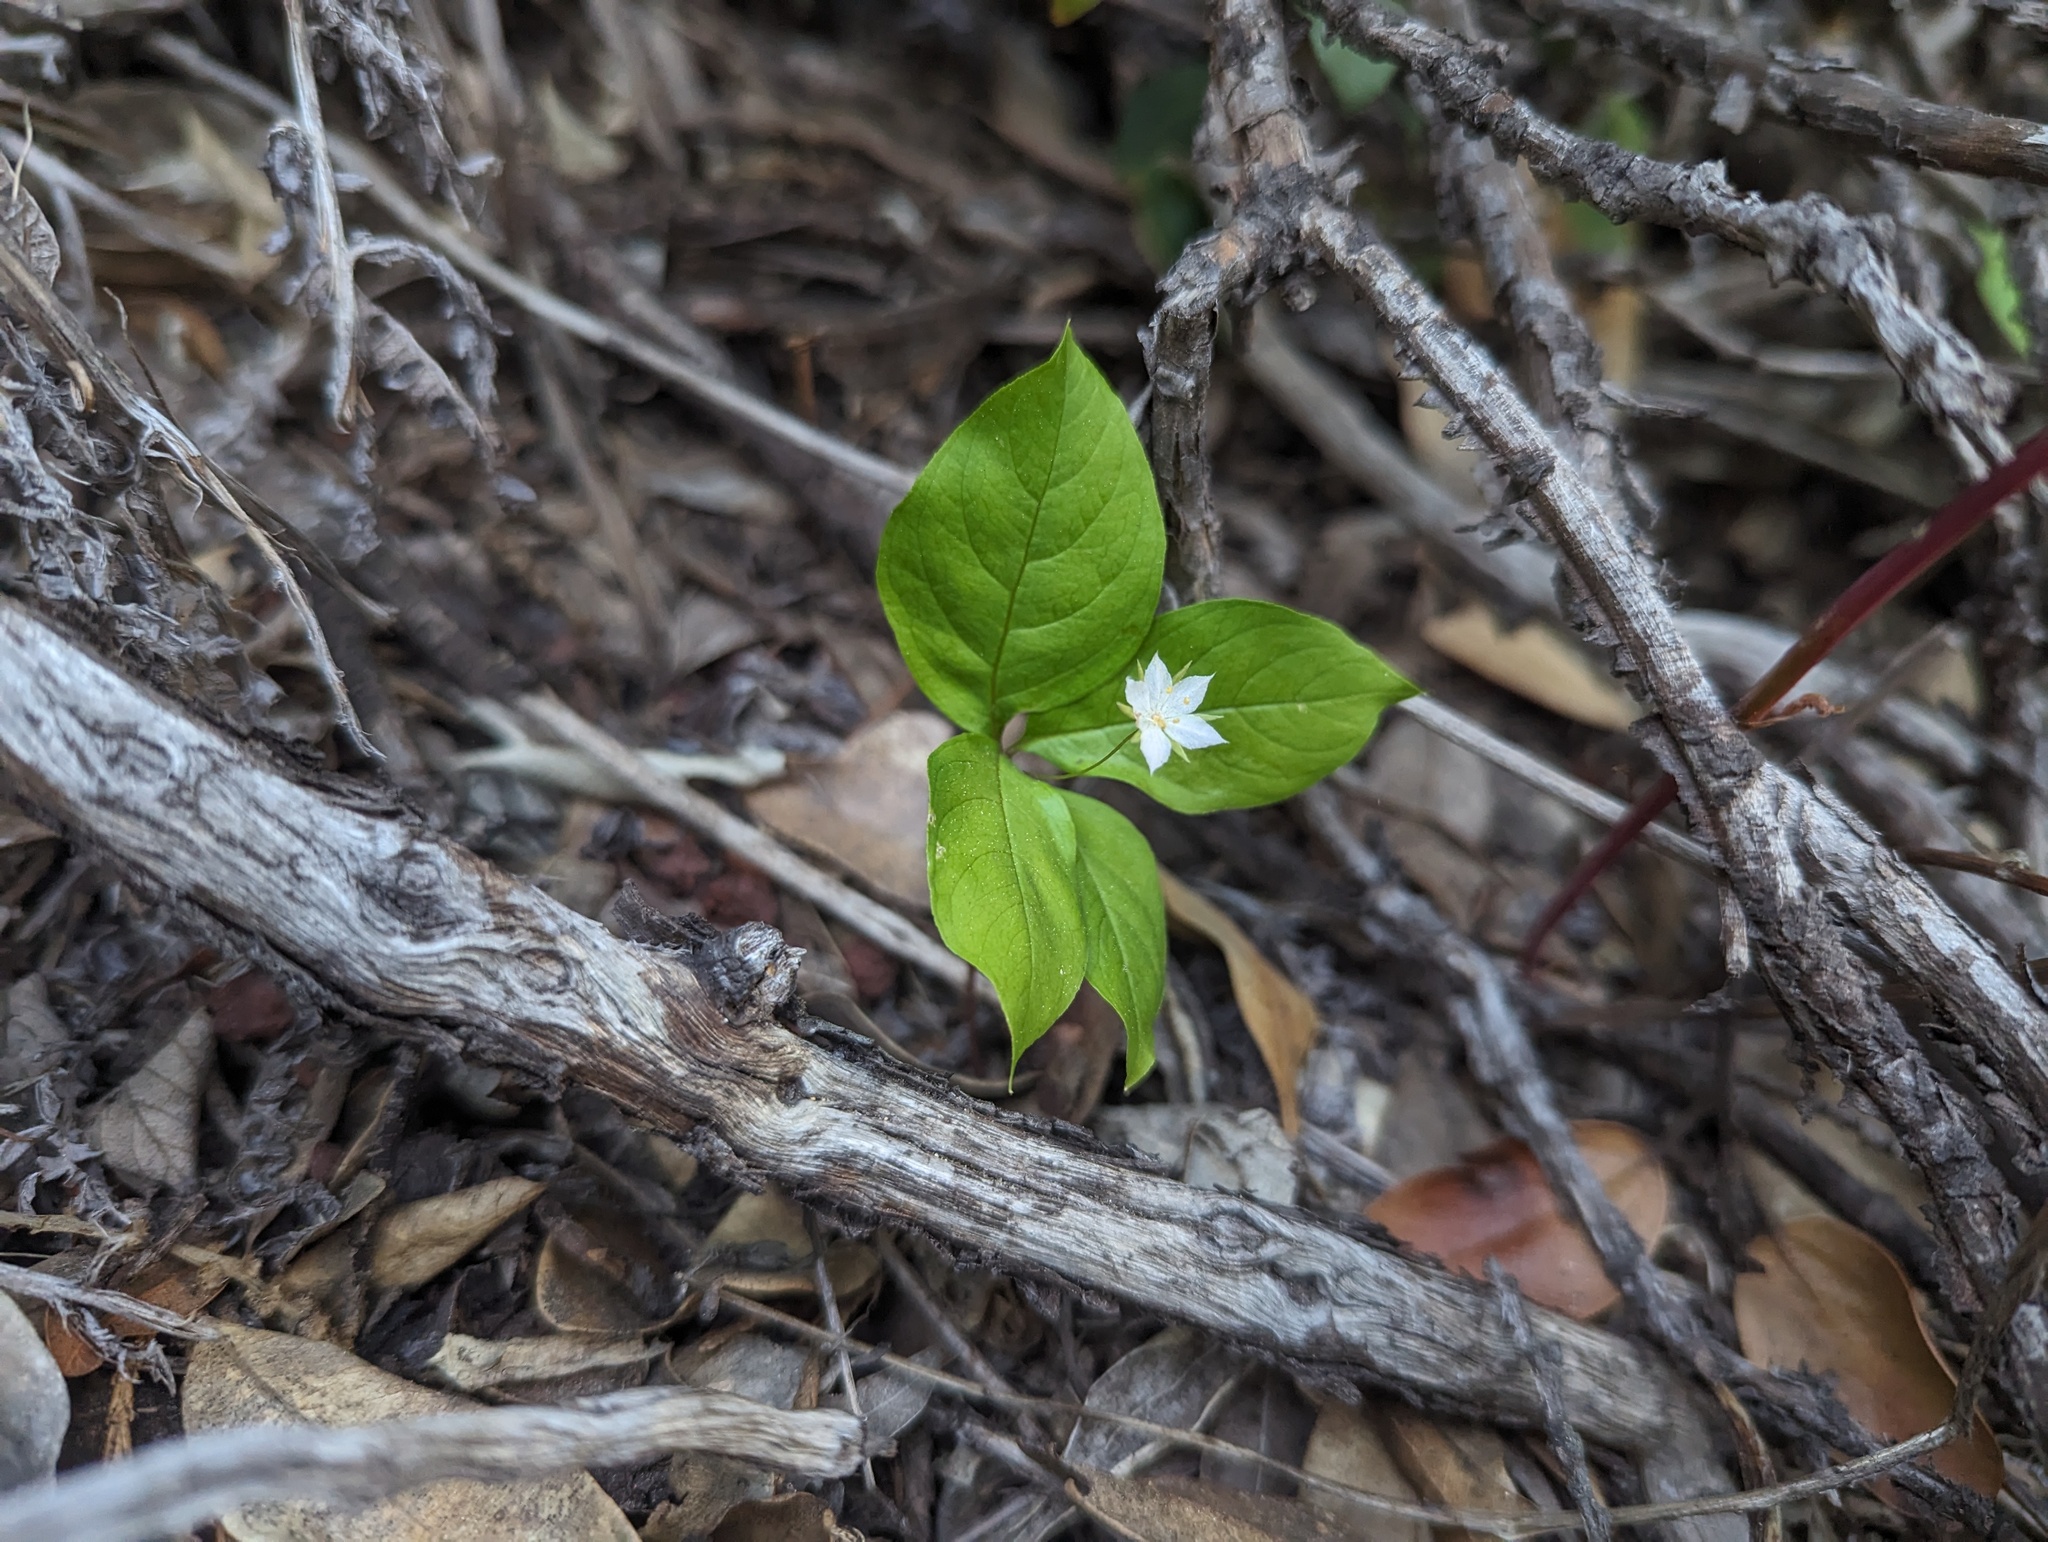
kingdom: Plantae
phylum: Tracheophyta
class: Magnoliopsida
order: Ericales
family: Primulaceae
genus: Lysimachia
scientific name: Lysimachia latifolia
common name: Pacific starflower
